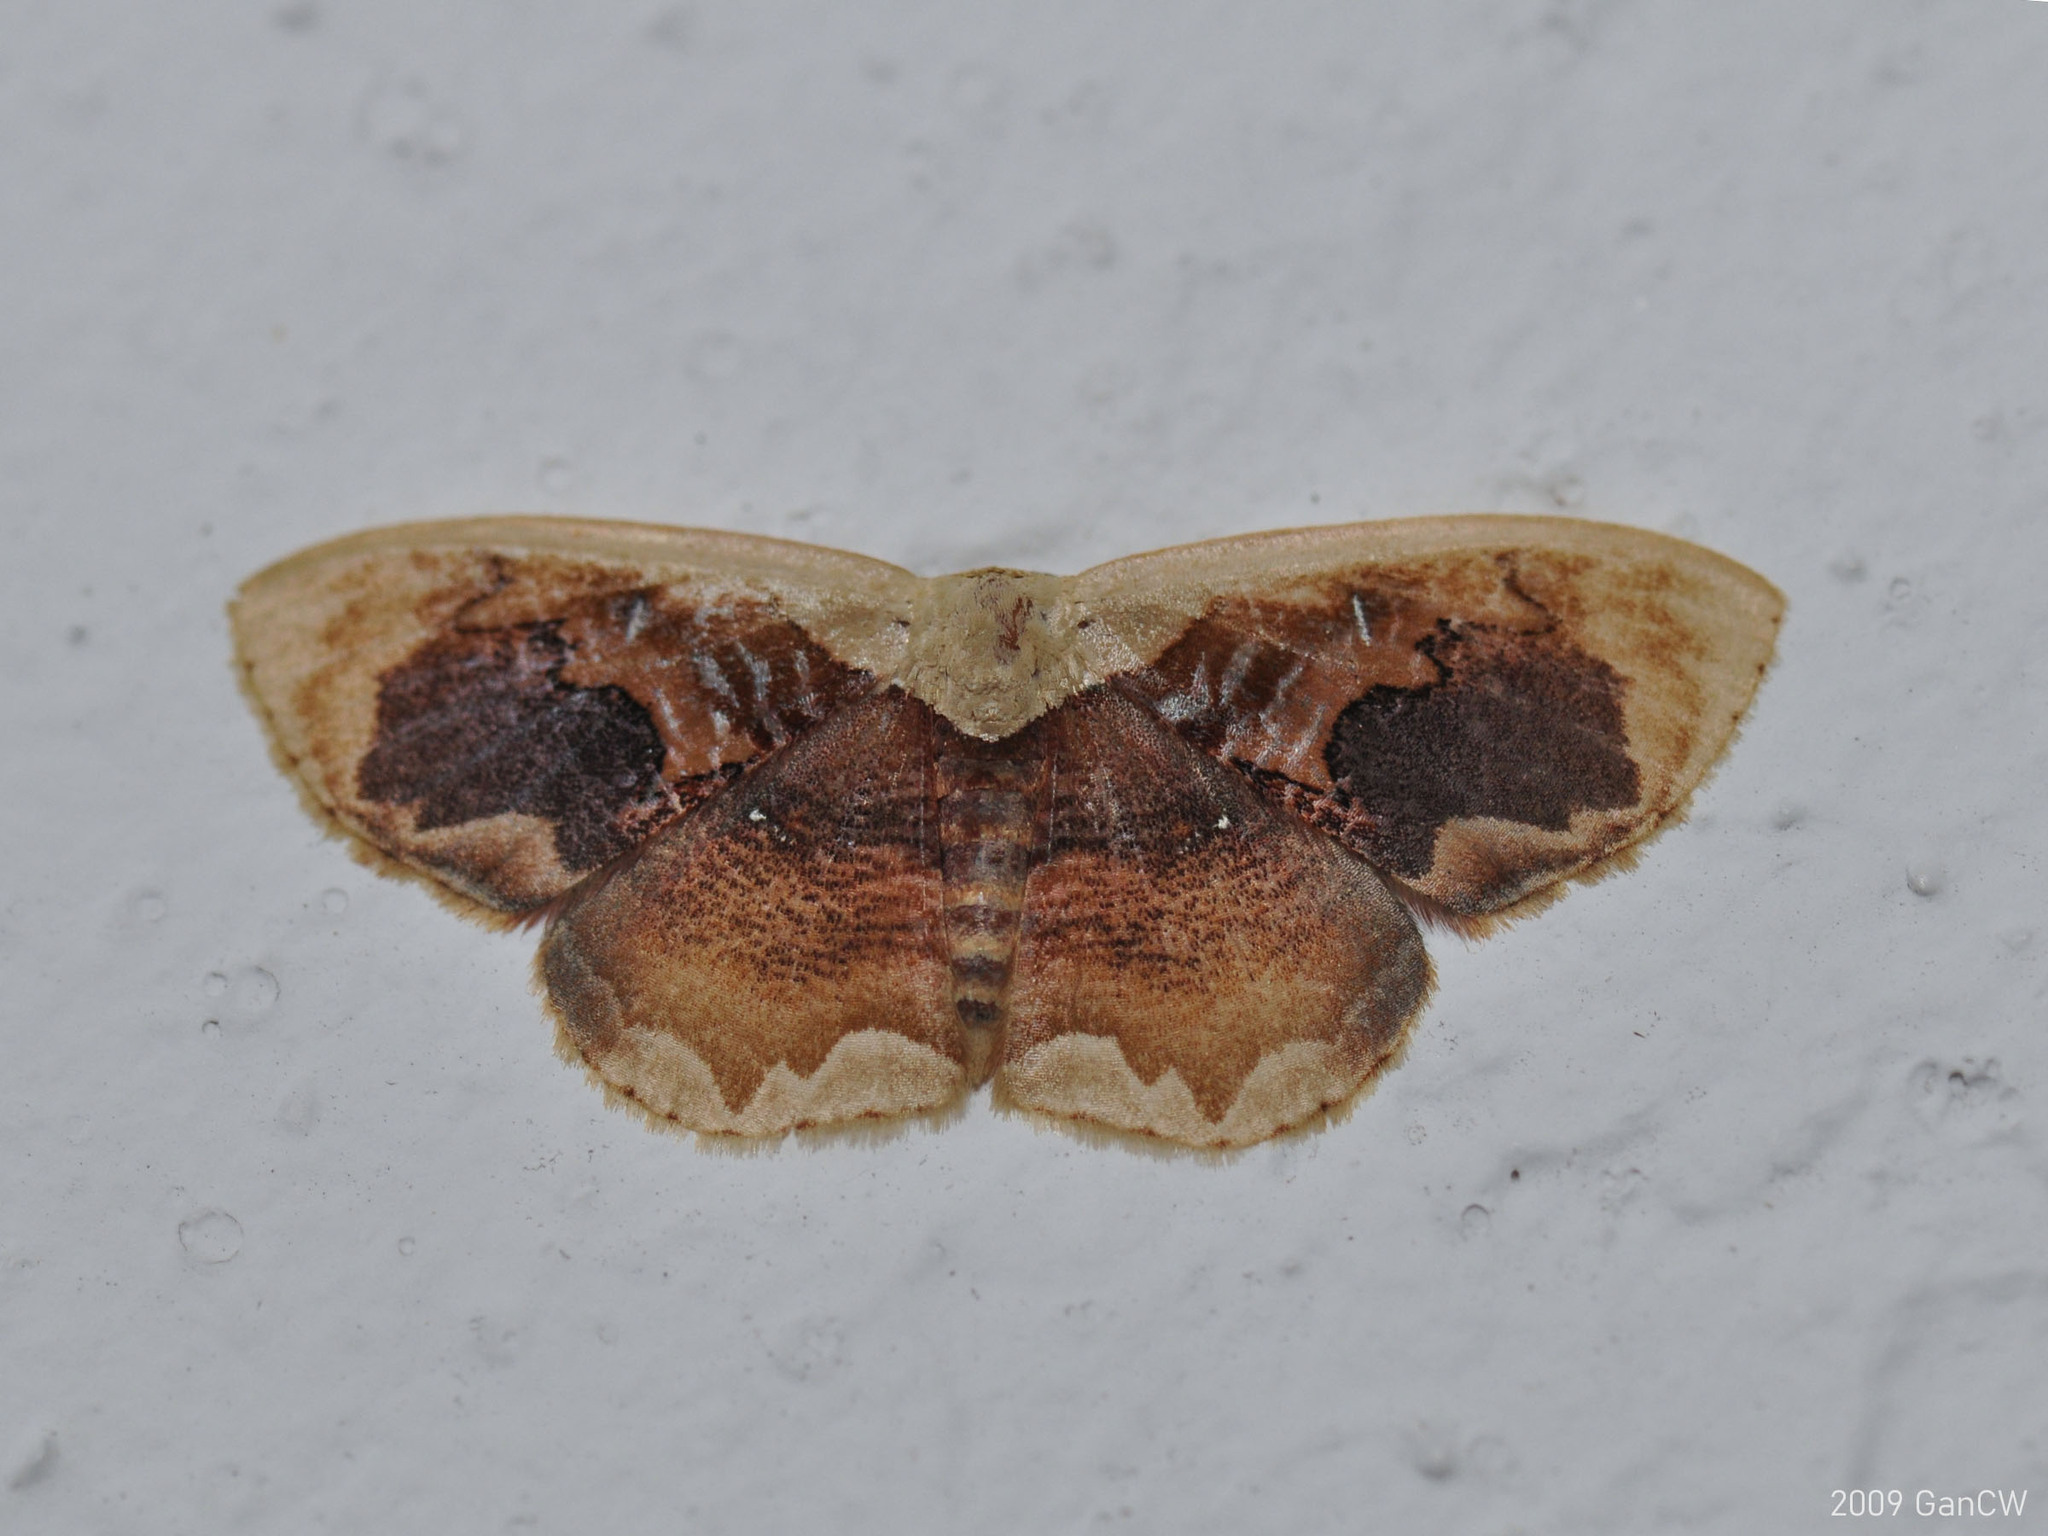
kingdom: Animalia
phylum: Arthropoda
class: Insecta
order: Lepidoptera
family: Geometridae
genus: Lipomelia
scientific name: Lipomelia subusta
